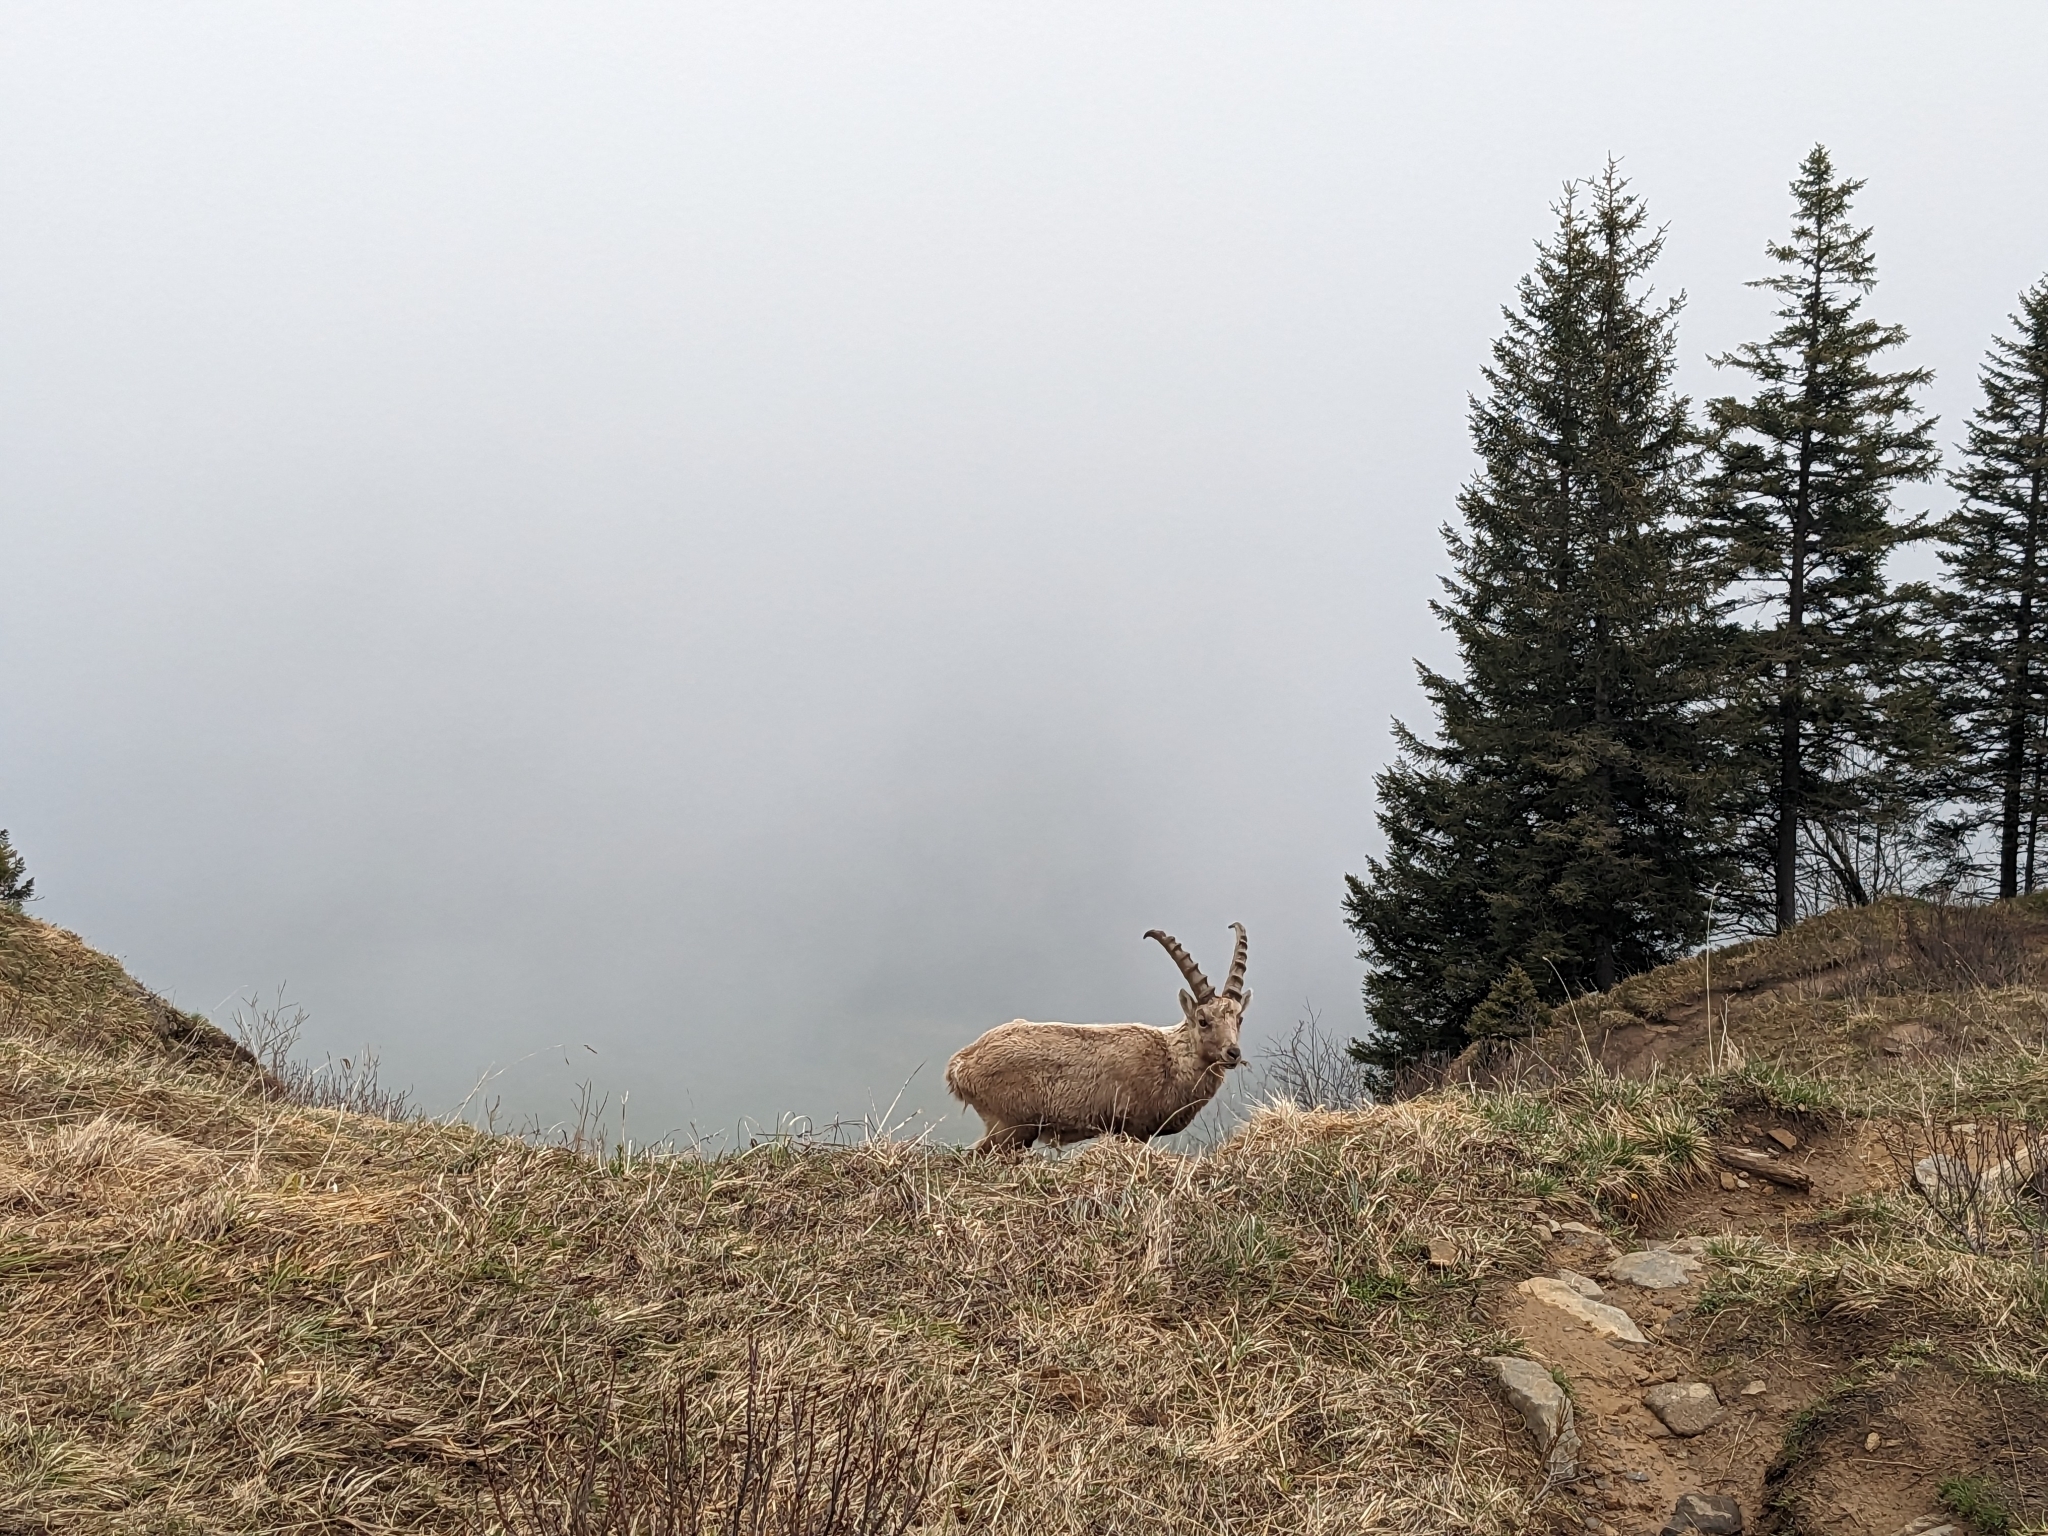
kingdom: Animalia
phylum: Chordata
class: Mammalia
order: Artiodactyla
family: Bovidae
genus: Capra
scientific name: Capra ibex
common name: Alpine ibex
